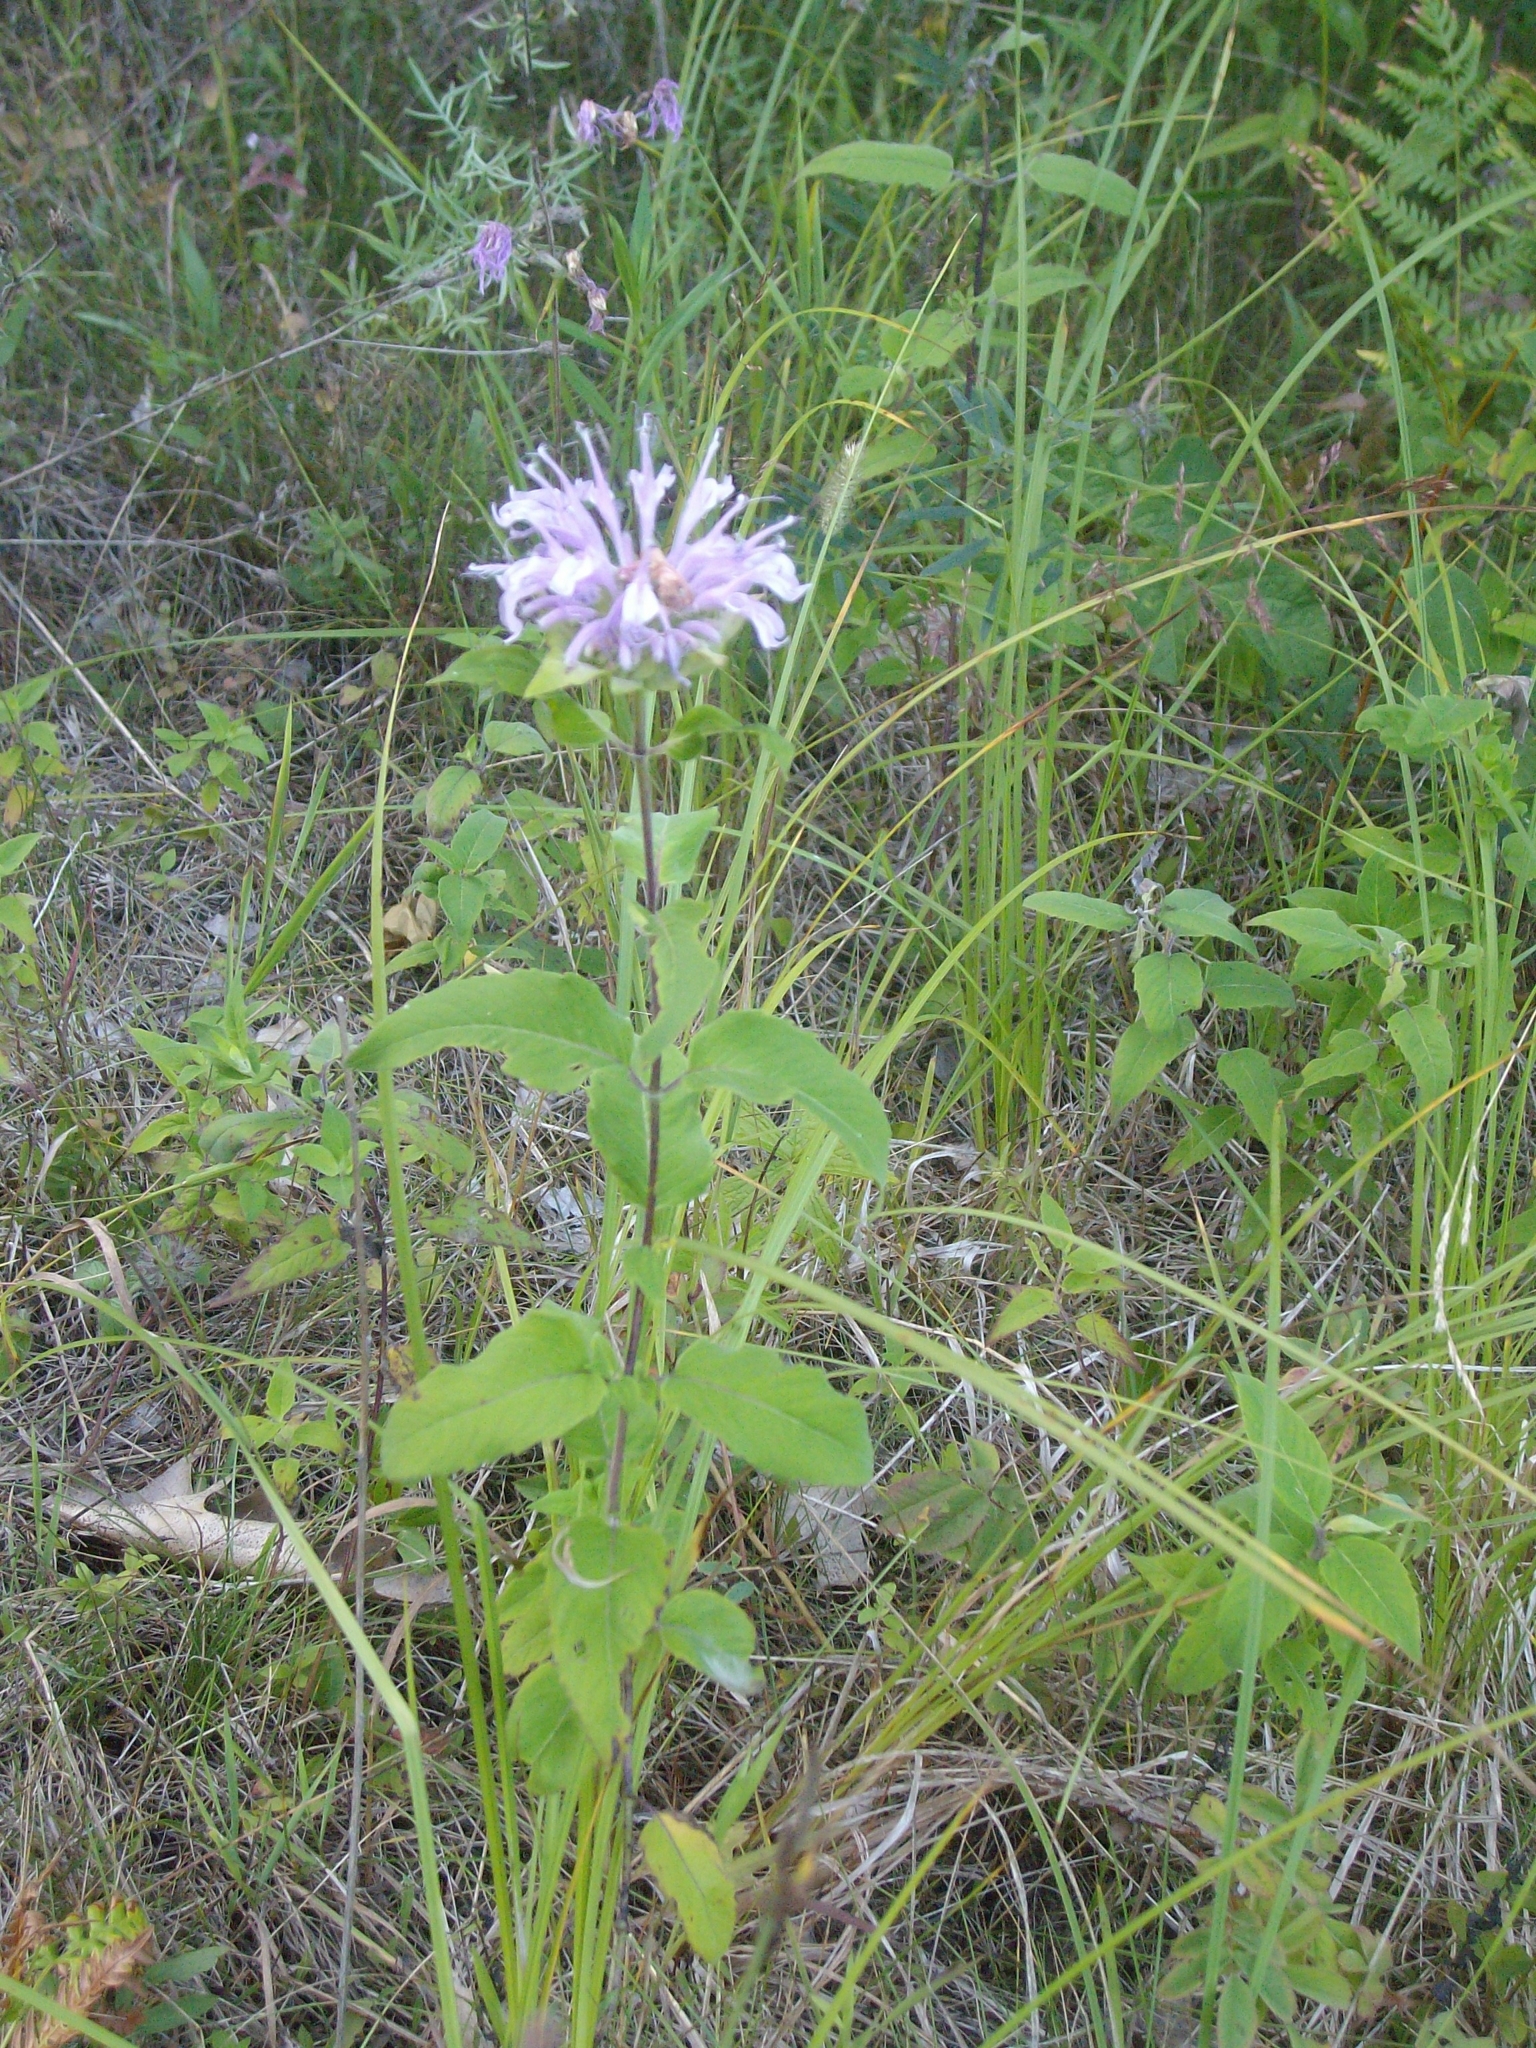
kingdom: Plantae
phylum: Tracheophyta
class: Magnoliopsida
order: Lamiales
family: Lamiaceae
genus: Monarda
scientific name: Monarda fistulosa
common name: Purple beebalm
